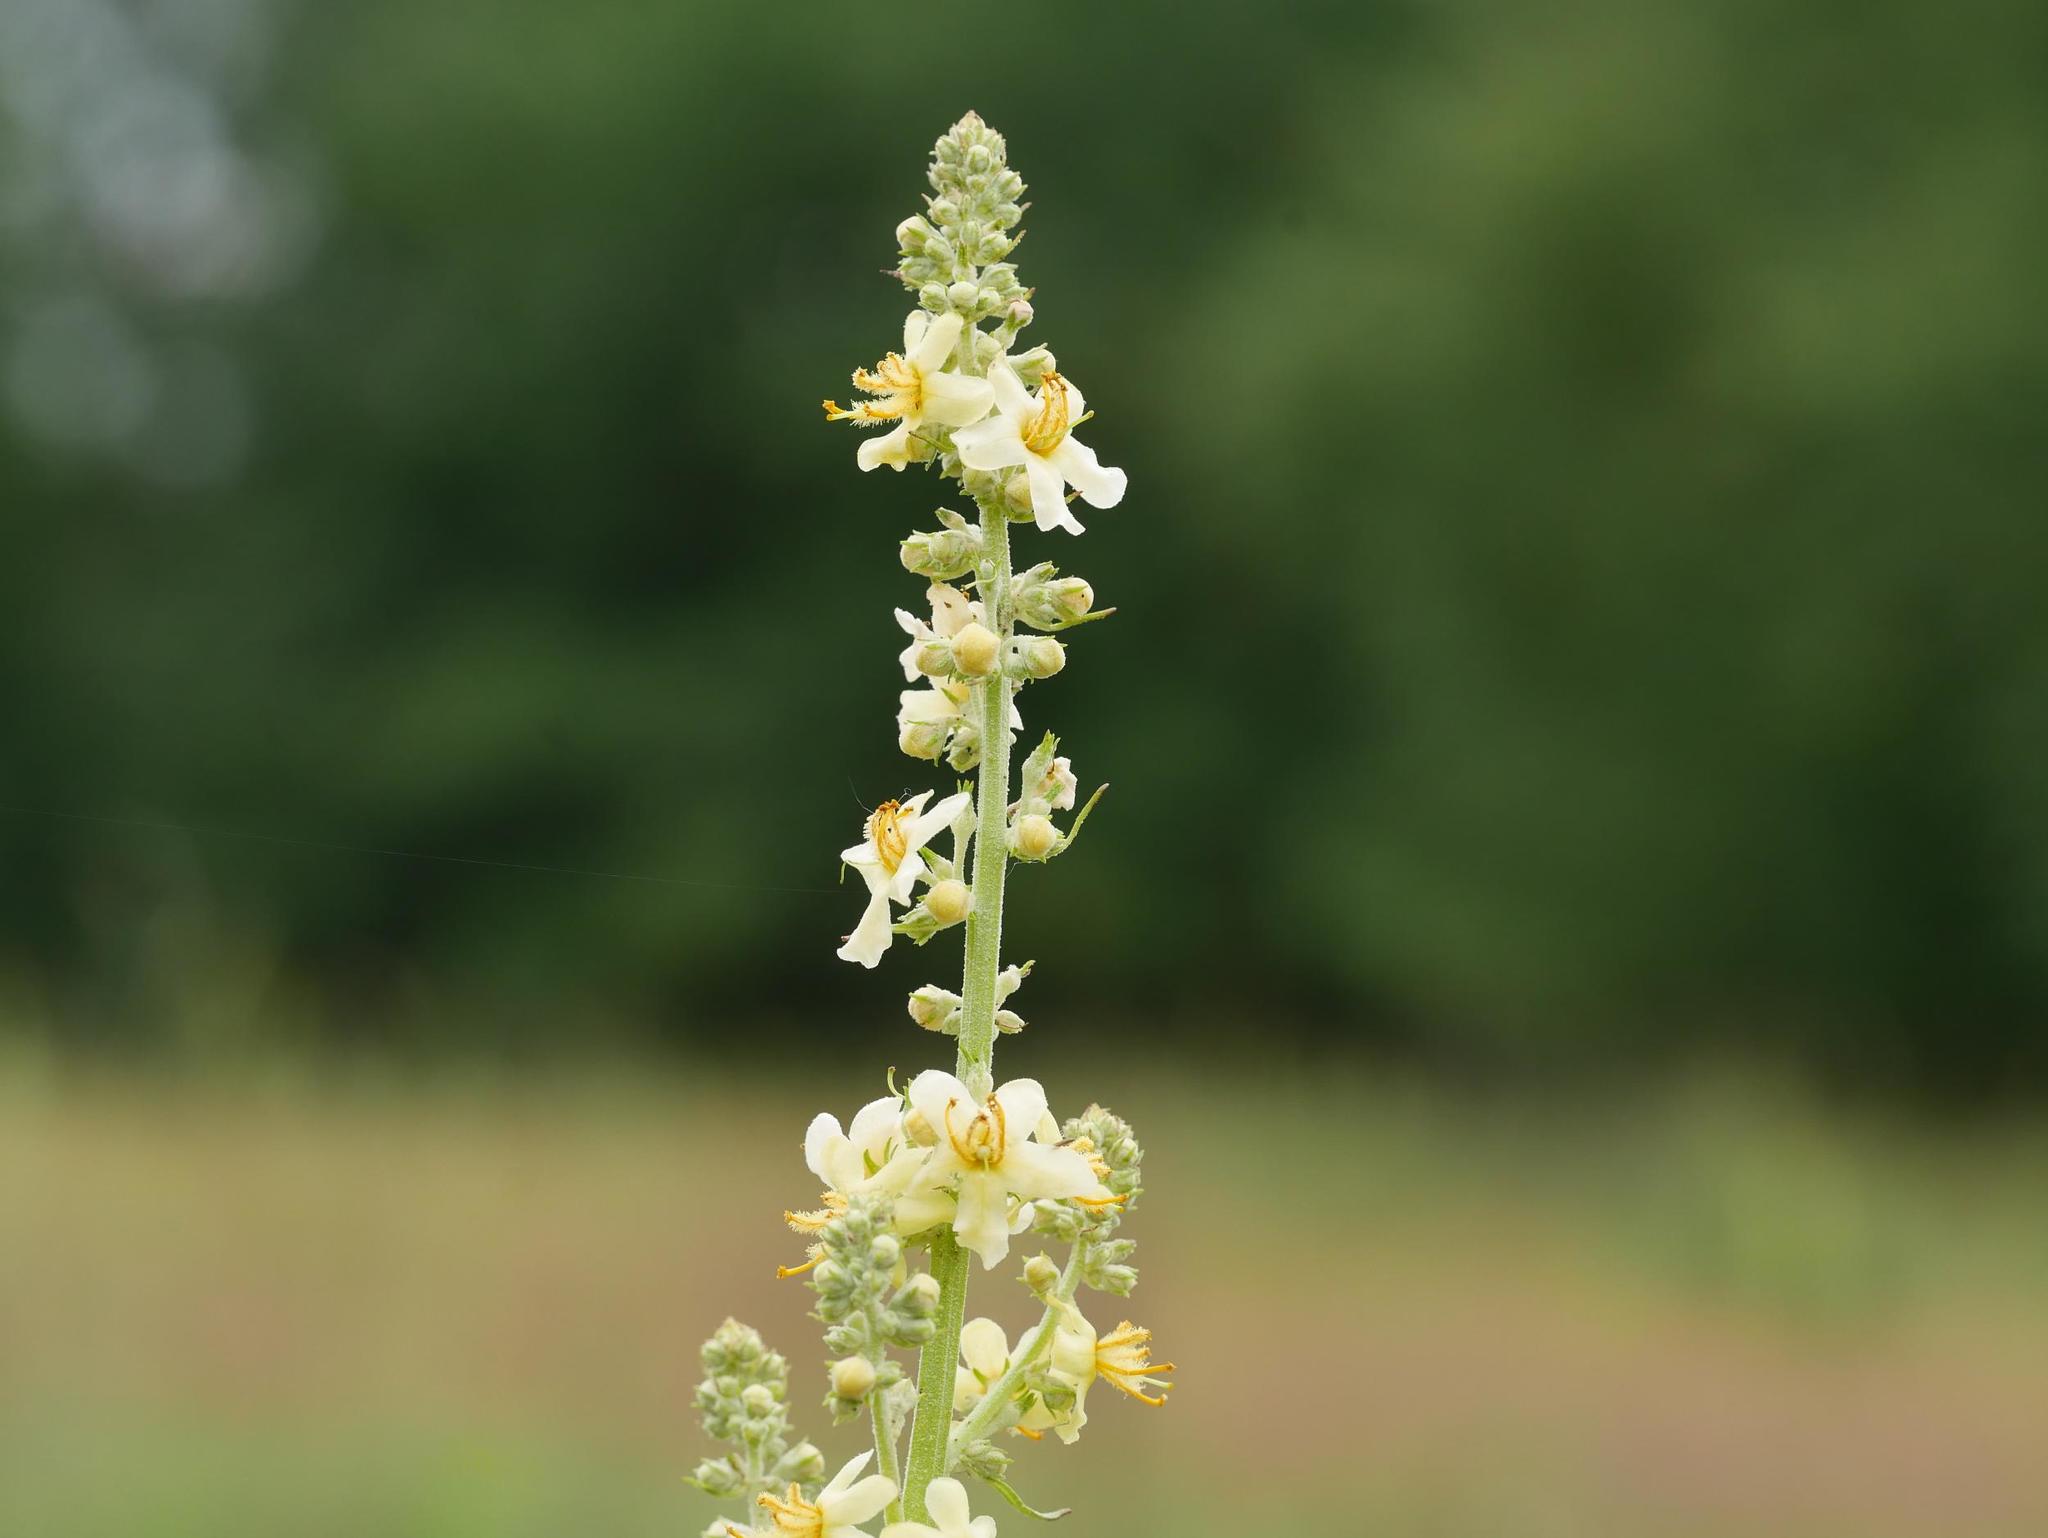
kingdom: Plantae
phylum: Tracheophyta
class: Magnoliopsida
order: Lamiales
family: Scrophulariaceae
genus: Verbascum
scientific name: Verbascum lychnitis
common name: White mullein
